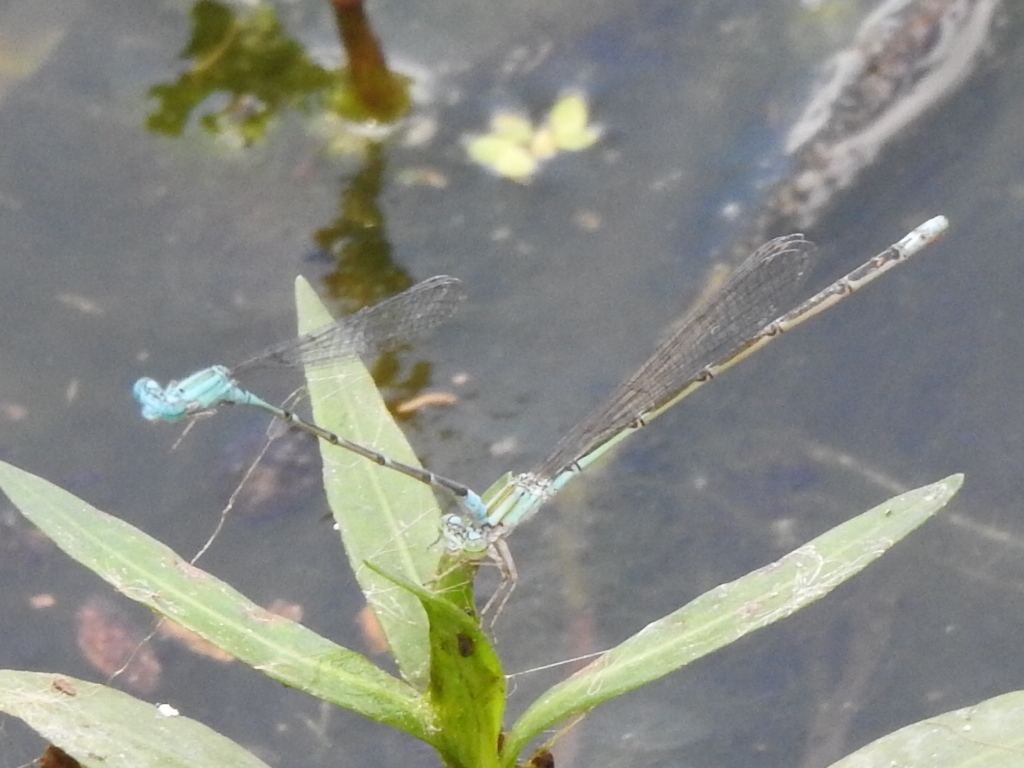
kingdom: Animalia
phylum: Arthropoda
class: Insecta
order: Odonata
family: Coenagrionidae
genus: Enallagma
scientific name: Enallagma traviatum
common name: Slender bluet
